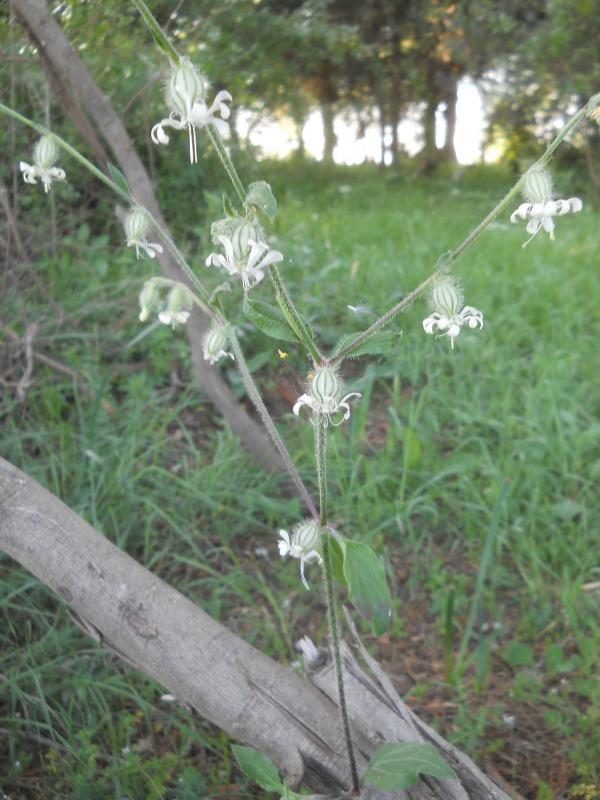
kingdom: Plantae
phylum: Tracheophyta
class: Magnoliopsida
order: Caryophyllales
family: Caryophyllaceae
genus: Silene
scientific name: Silene dichotoma
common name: Forked catchfly
